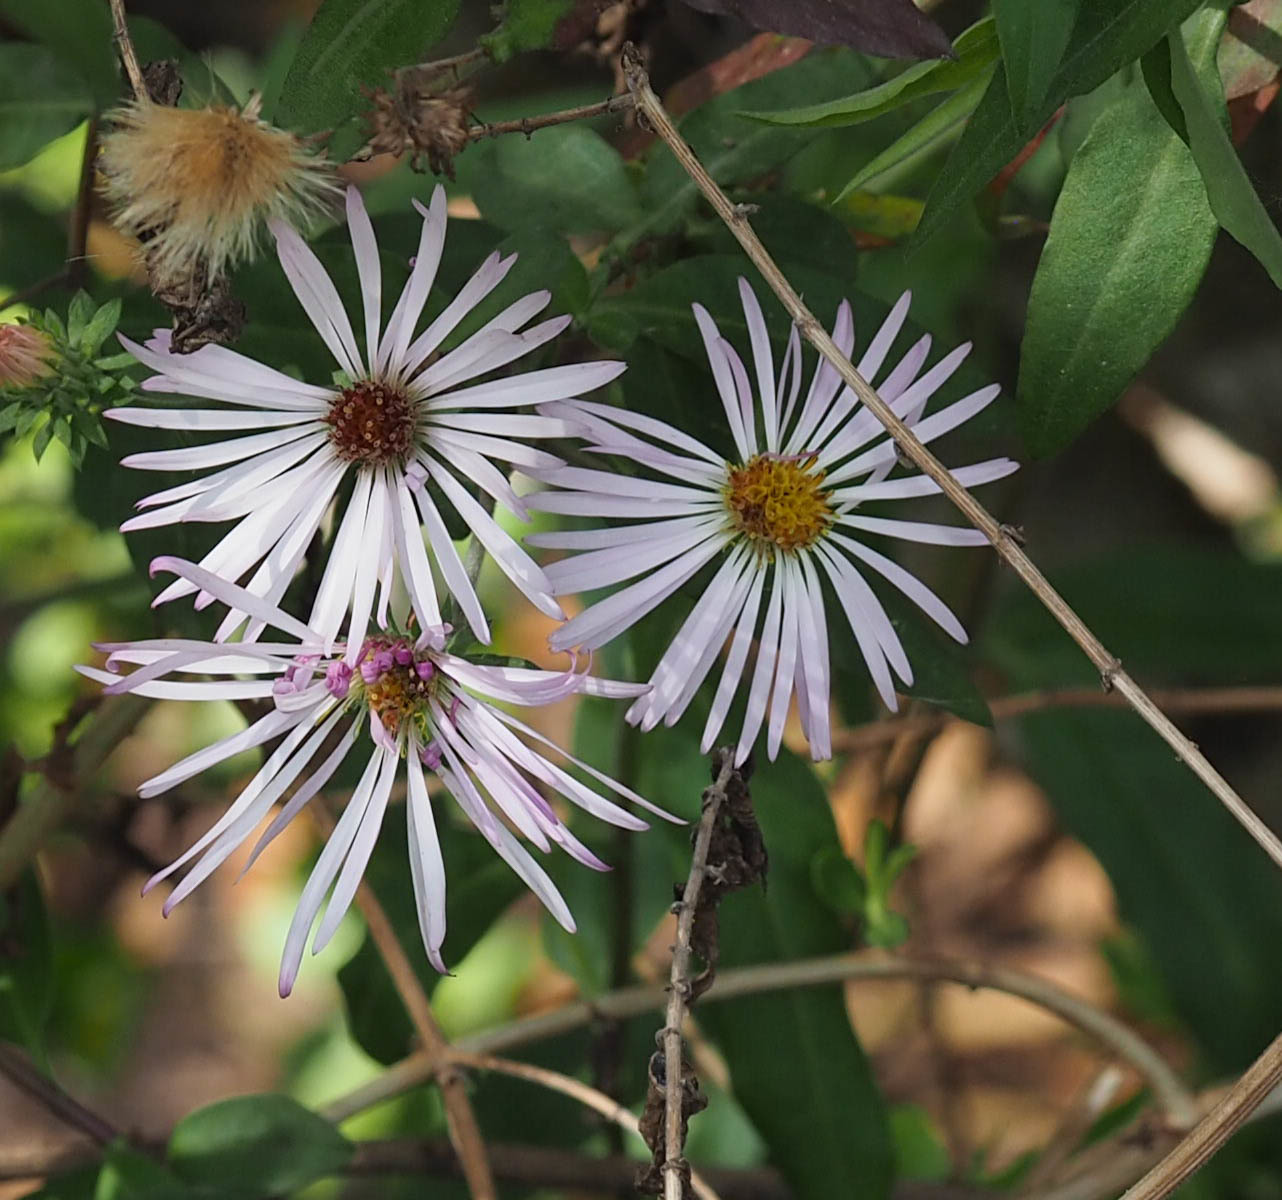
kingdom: Plantae
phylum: Tracheophyta
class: Magnoliopsida
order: Asterales
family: Asteraceae
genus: Ampelaster
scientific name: Ampelaster carolinianus
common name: Climbing aster
